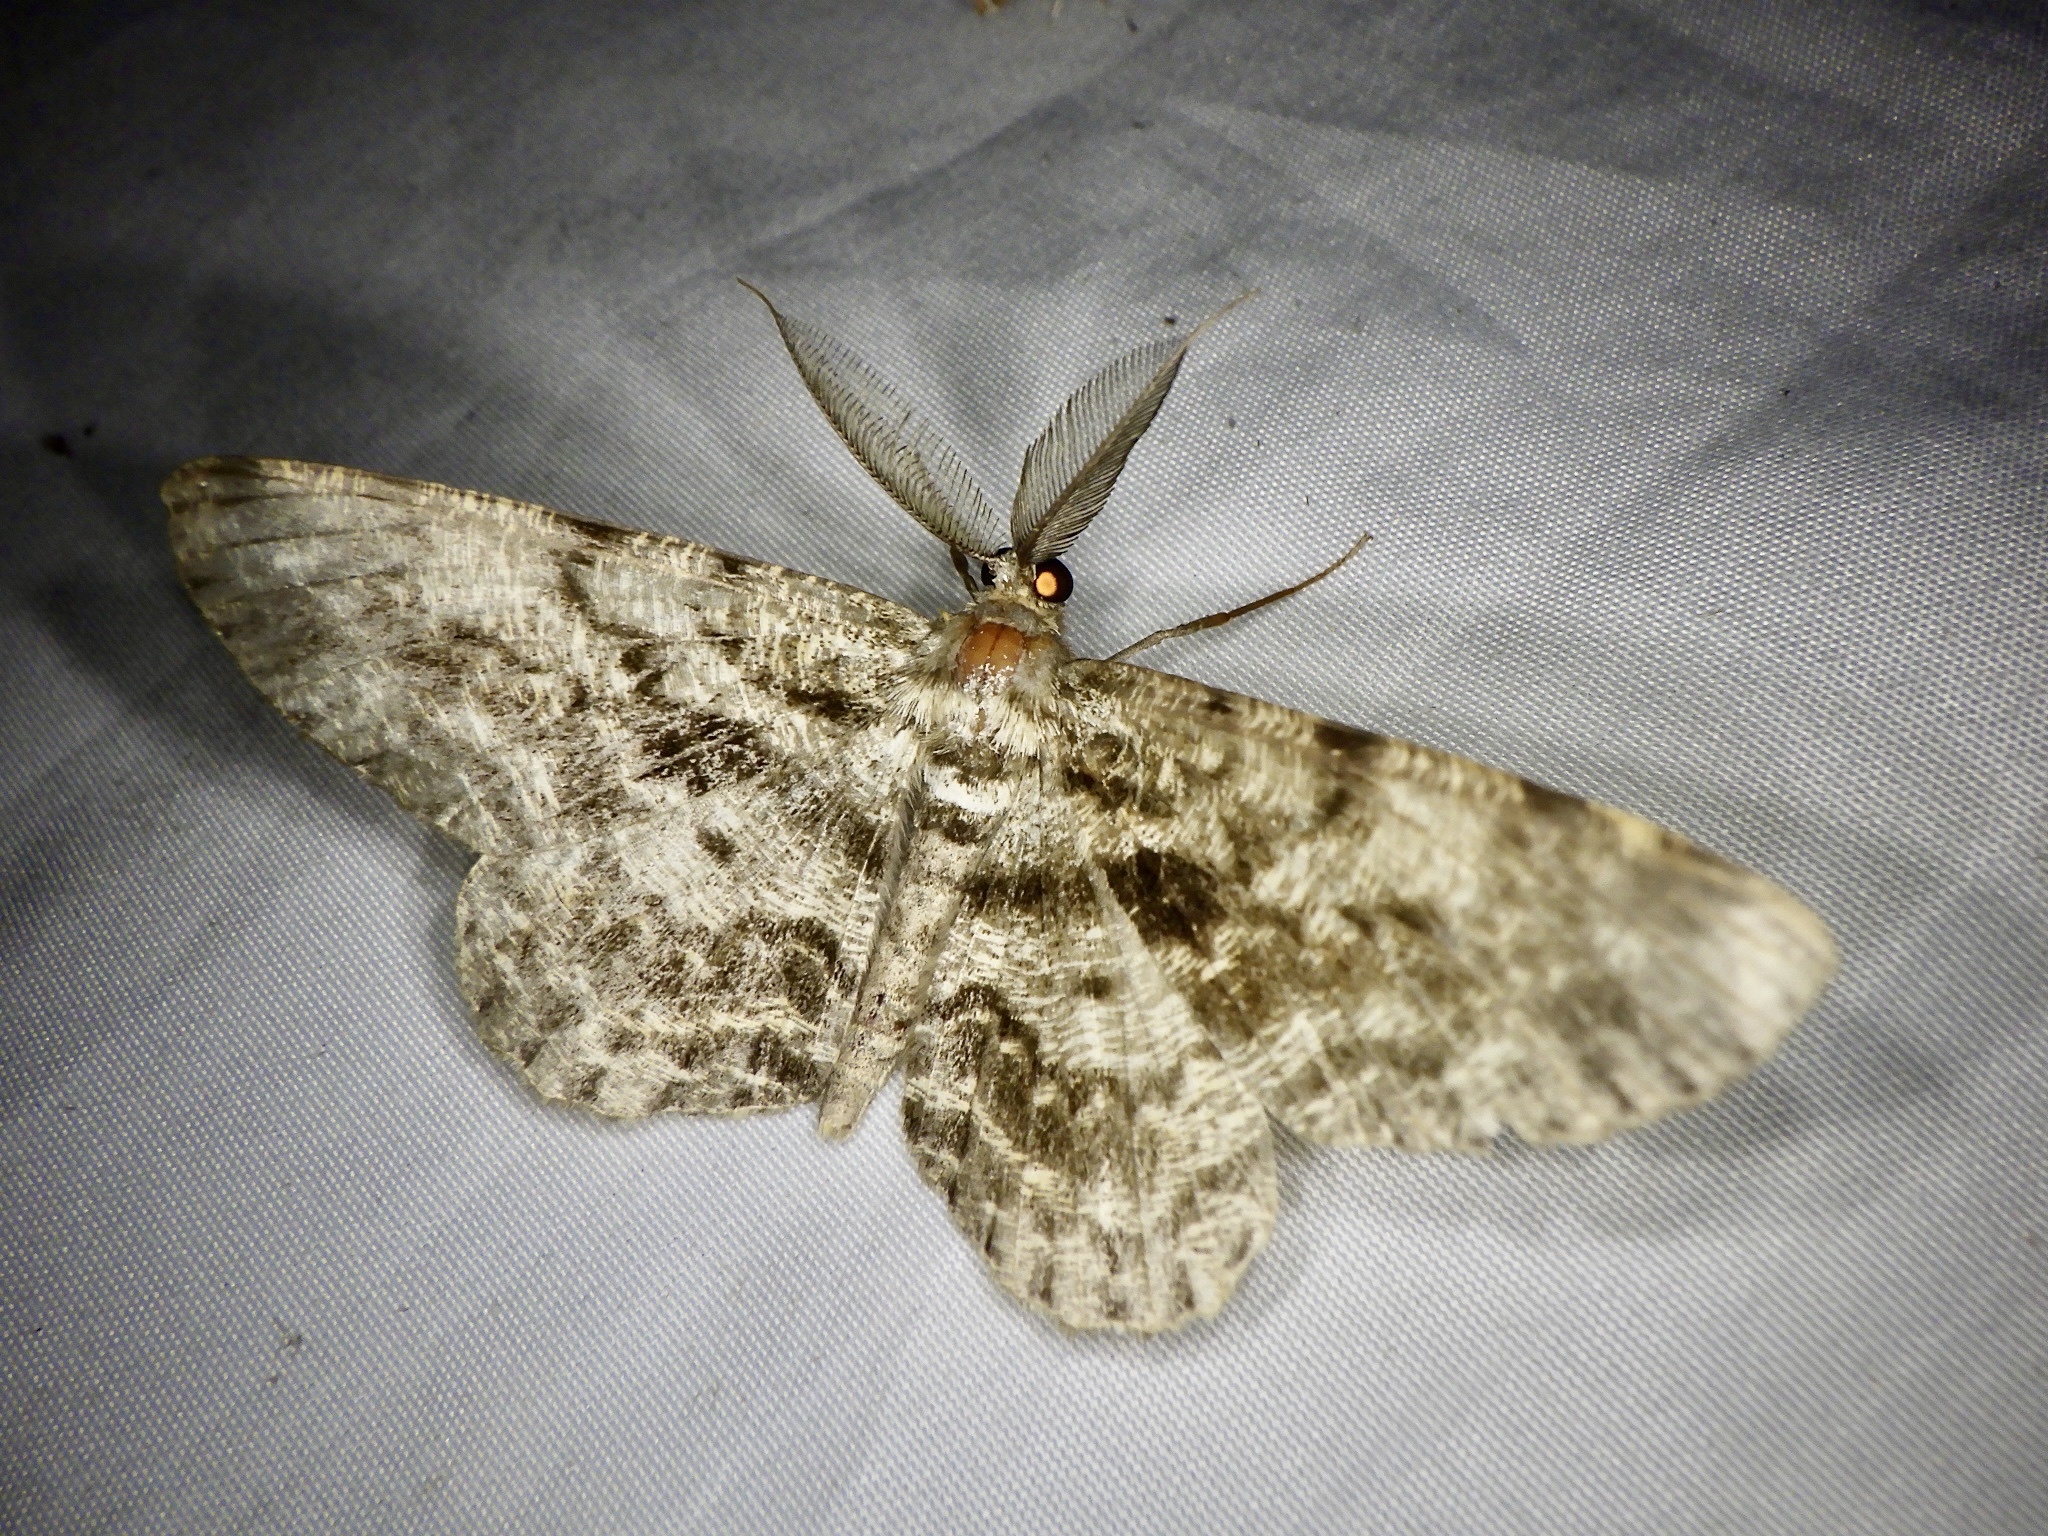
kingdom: Animalia
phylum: Arthropoda
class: Insecta
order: Lepidoptera
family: Geometridae
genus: Hypomecis
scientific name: Hypomecis roboraria
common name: Great oak beauty
